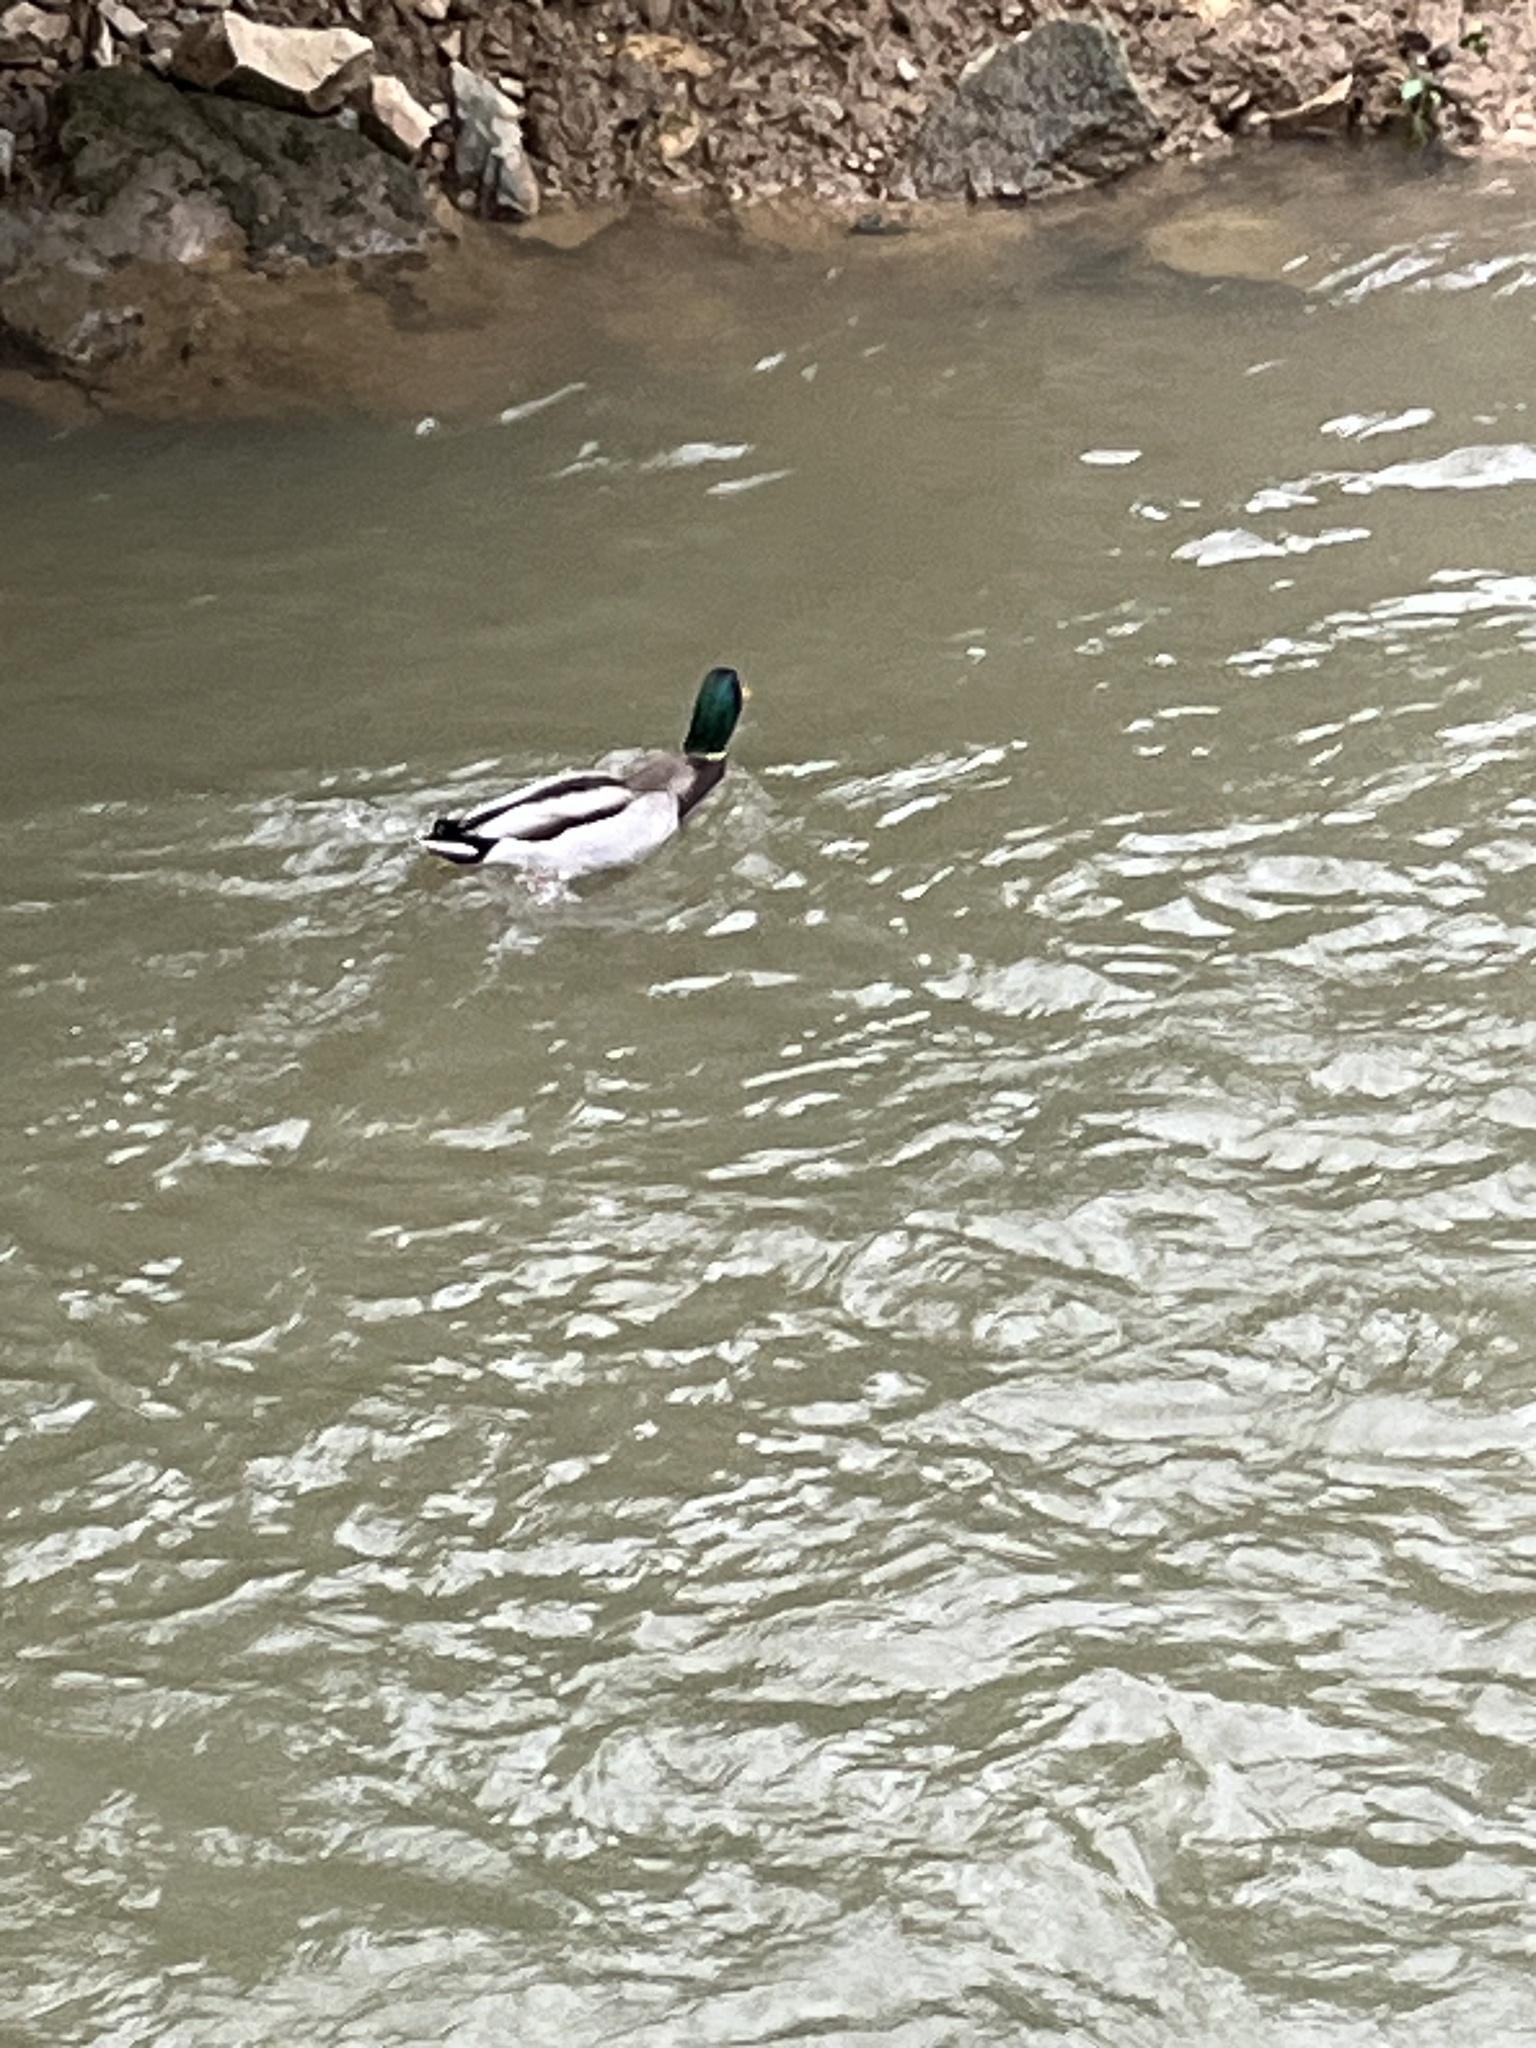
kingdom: Animalia
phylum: Chordata
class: Aves
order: Anseriformes
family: Anatidae
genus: Anas
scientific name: Anas platyrhynchos
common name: Mallard
